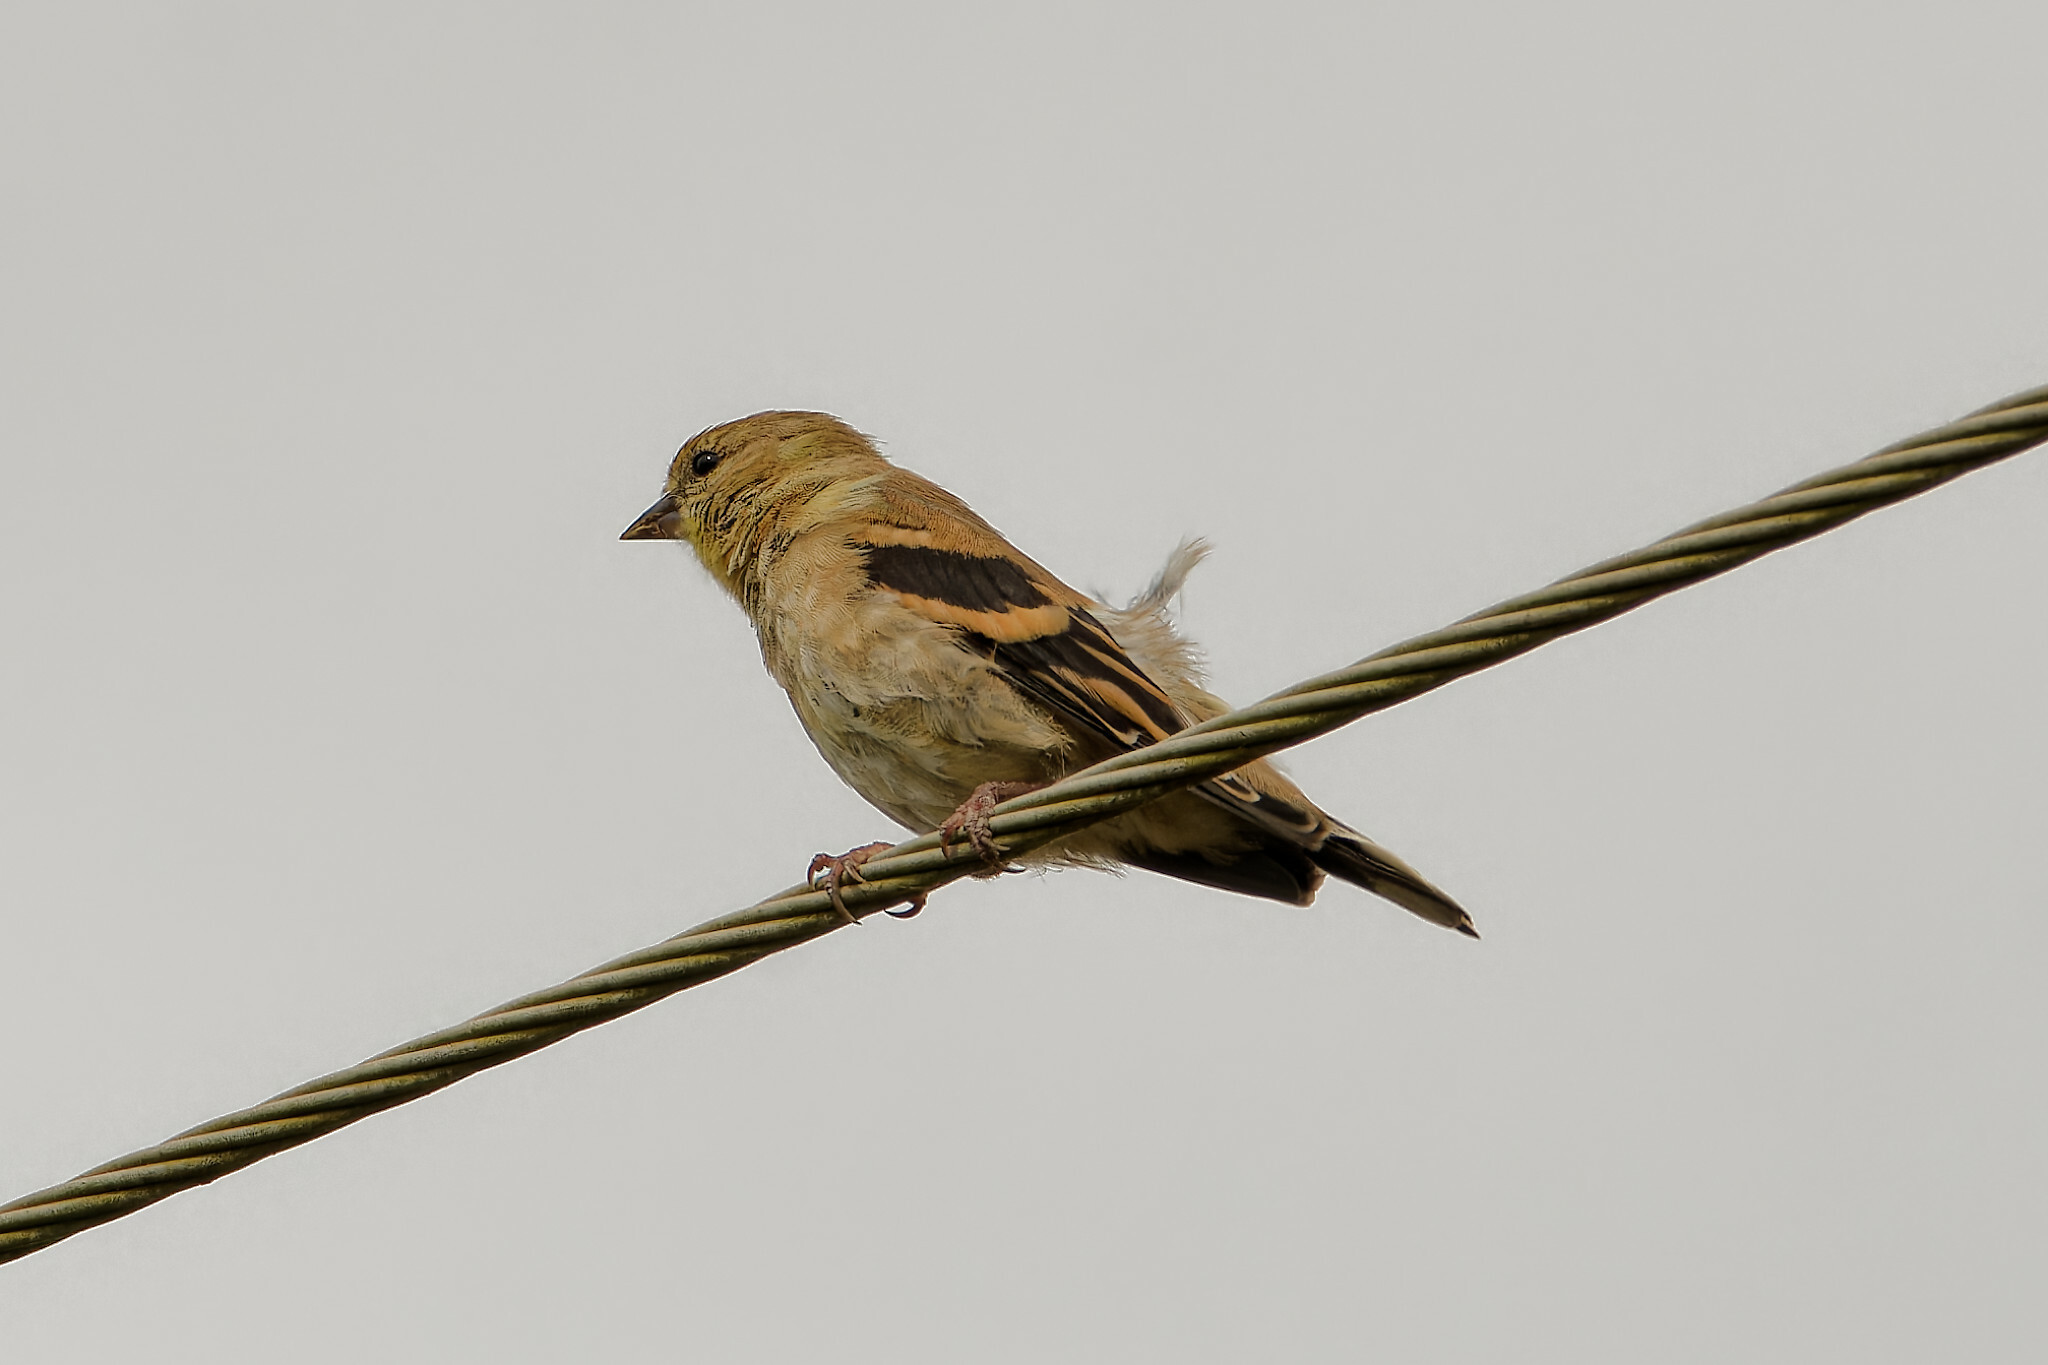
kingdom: Animalia
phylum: Chordata
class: Aves
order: Passeriformes
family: Fringillidae
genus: Spinus
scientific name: Spinus tristis
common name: American goldfinch
